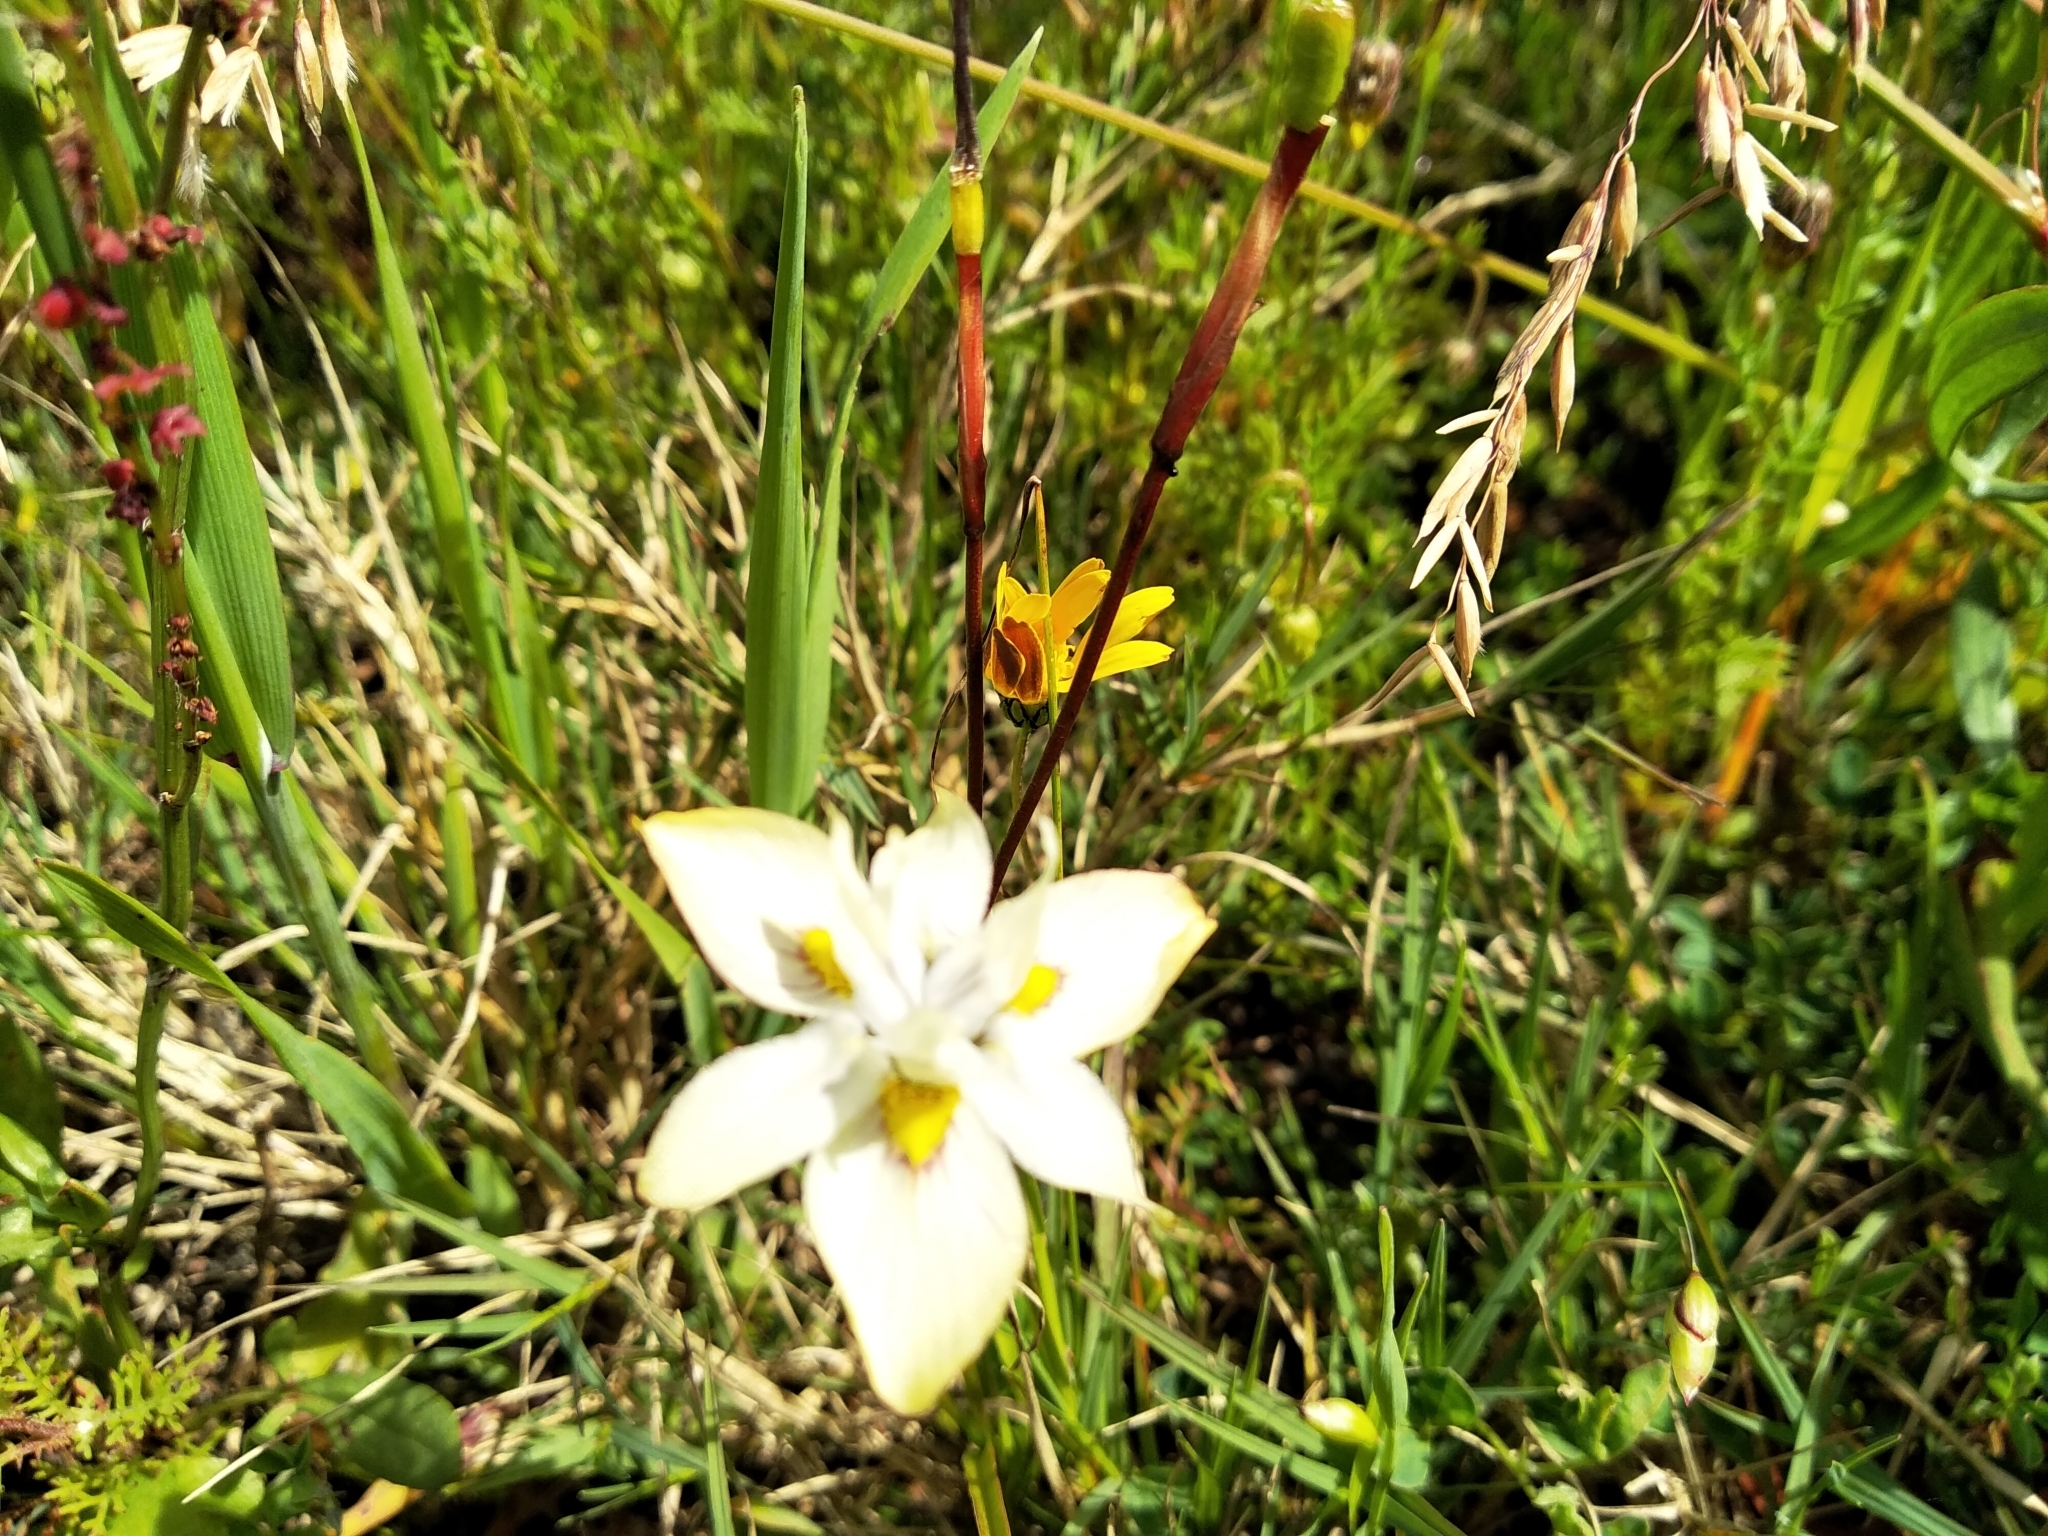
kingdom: Plantae
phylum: Tracheophyta
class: Liliopsida
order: Asparagales
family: Iridaceae
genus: Moraea
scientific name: Moraea gawleri
